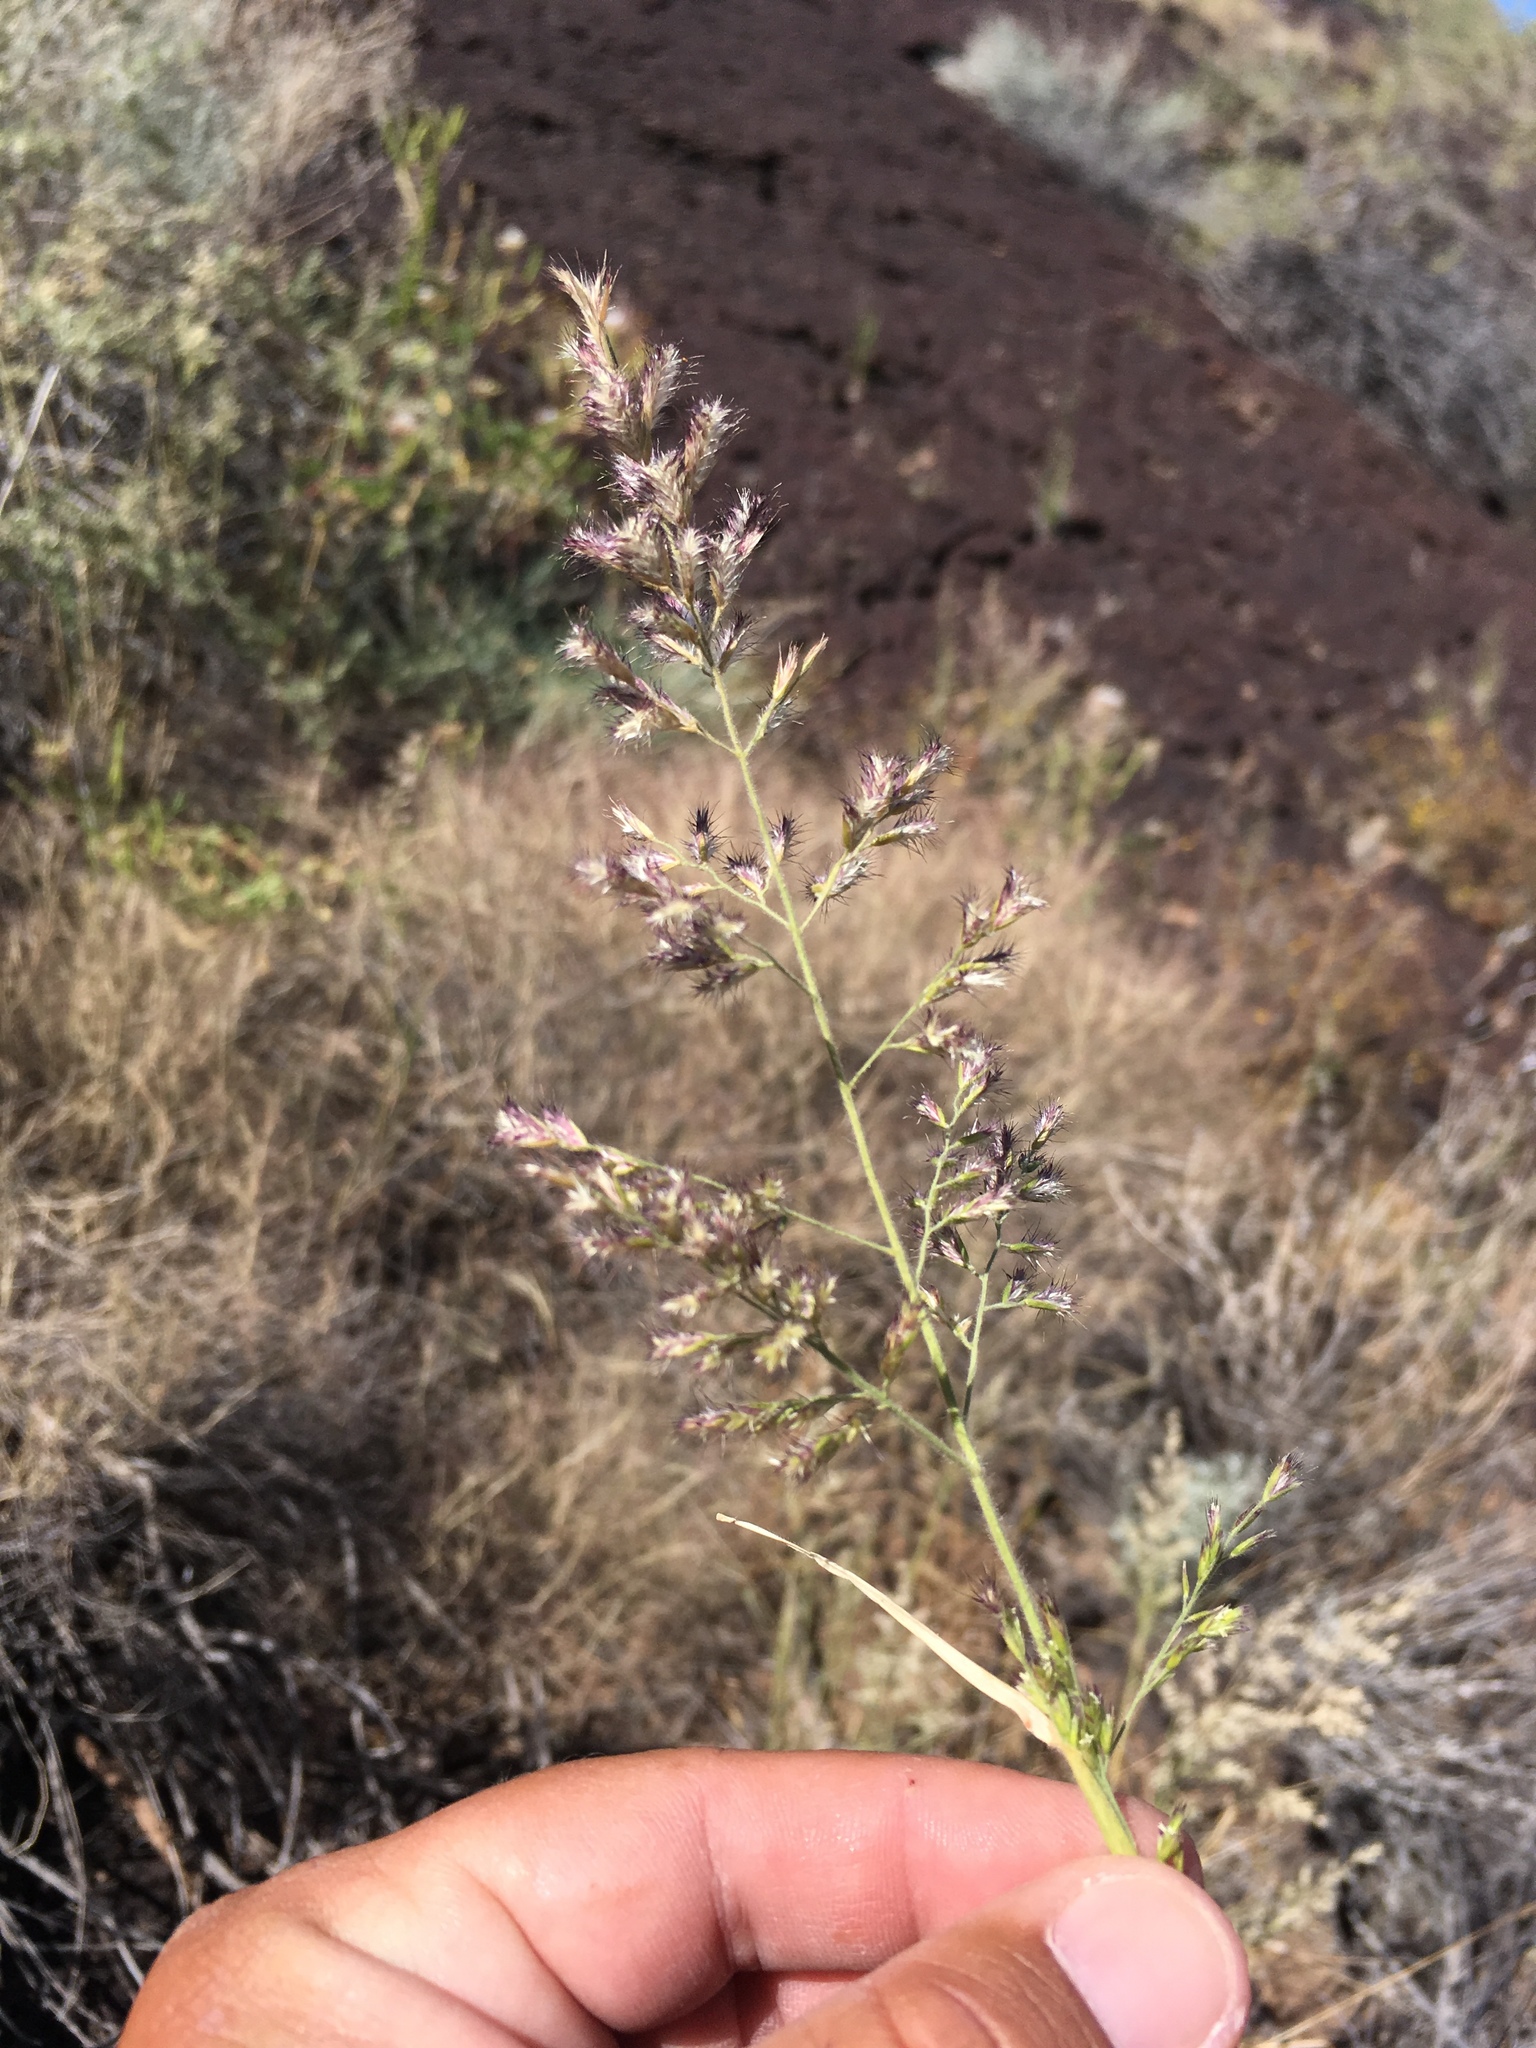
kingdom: Plantae
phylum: Tracheophyta
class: Liliopsida
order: Poales
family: Poaceae
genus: Cottea
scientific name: Cottea pappophoroides
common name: Cotta grass
